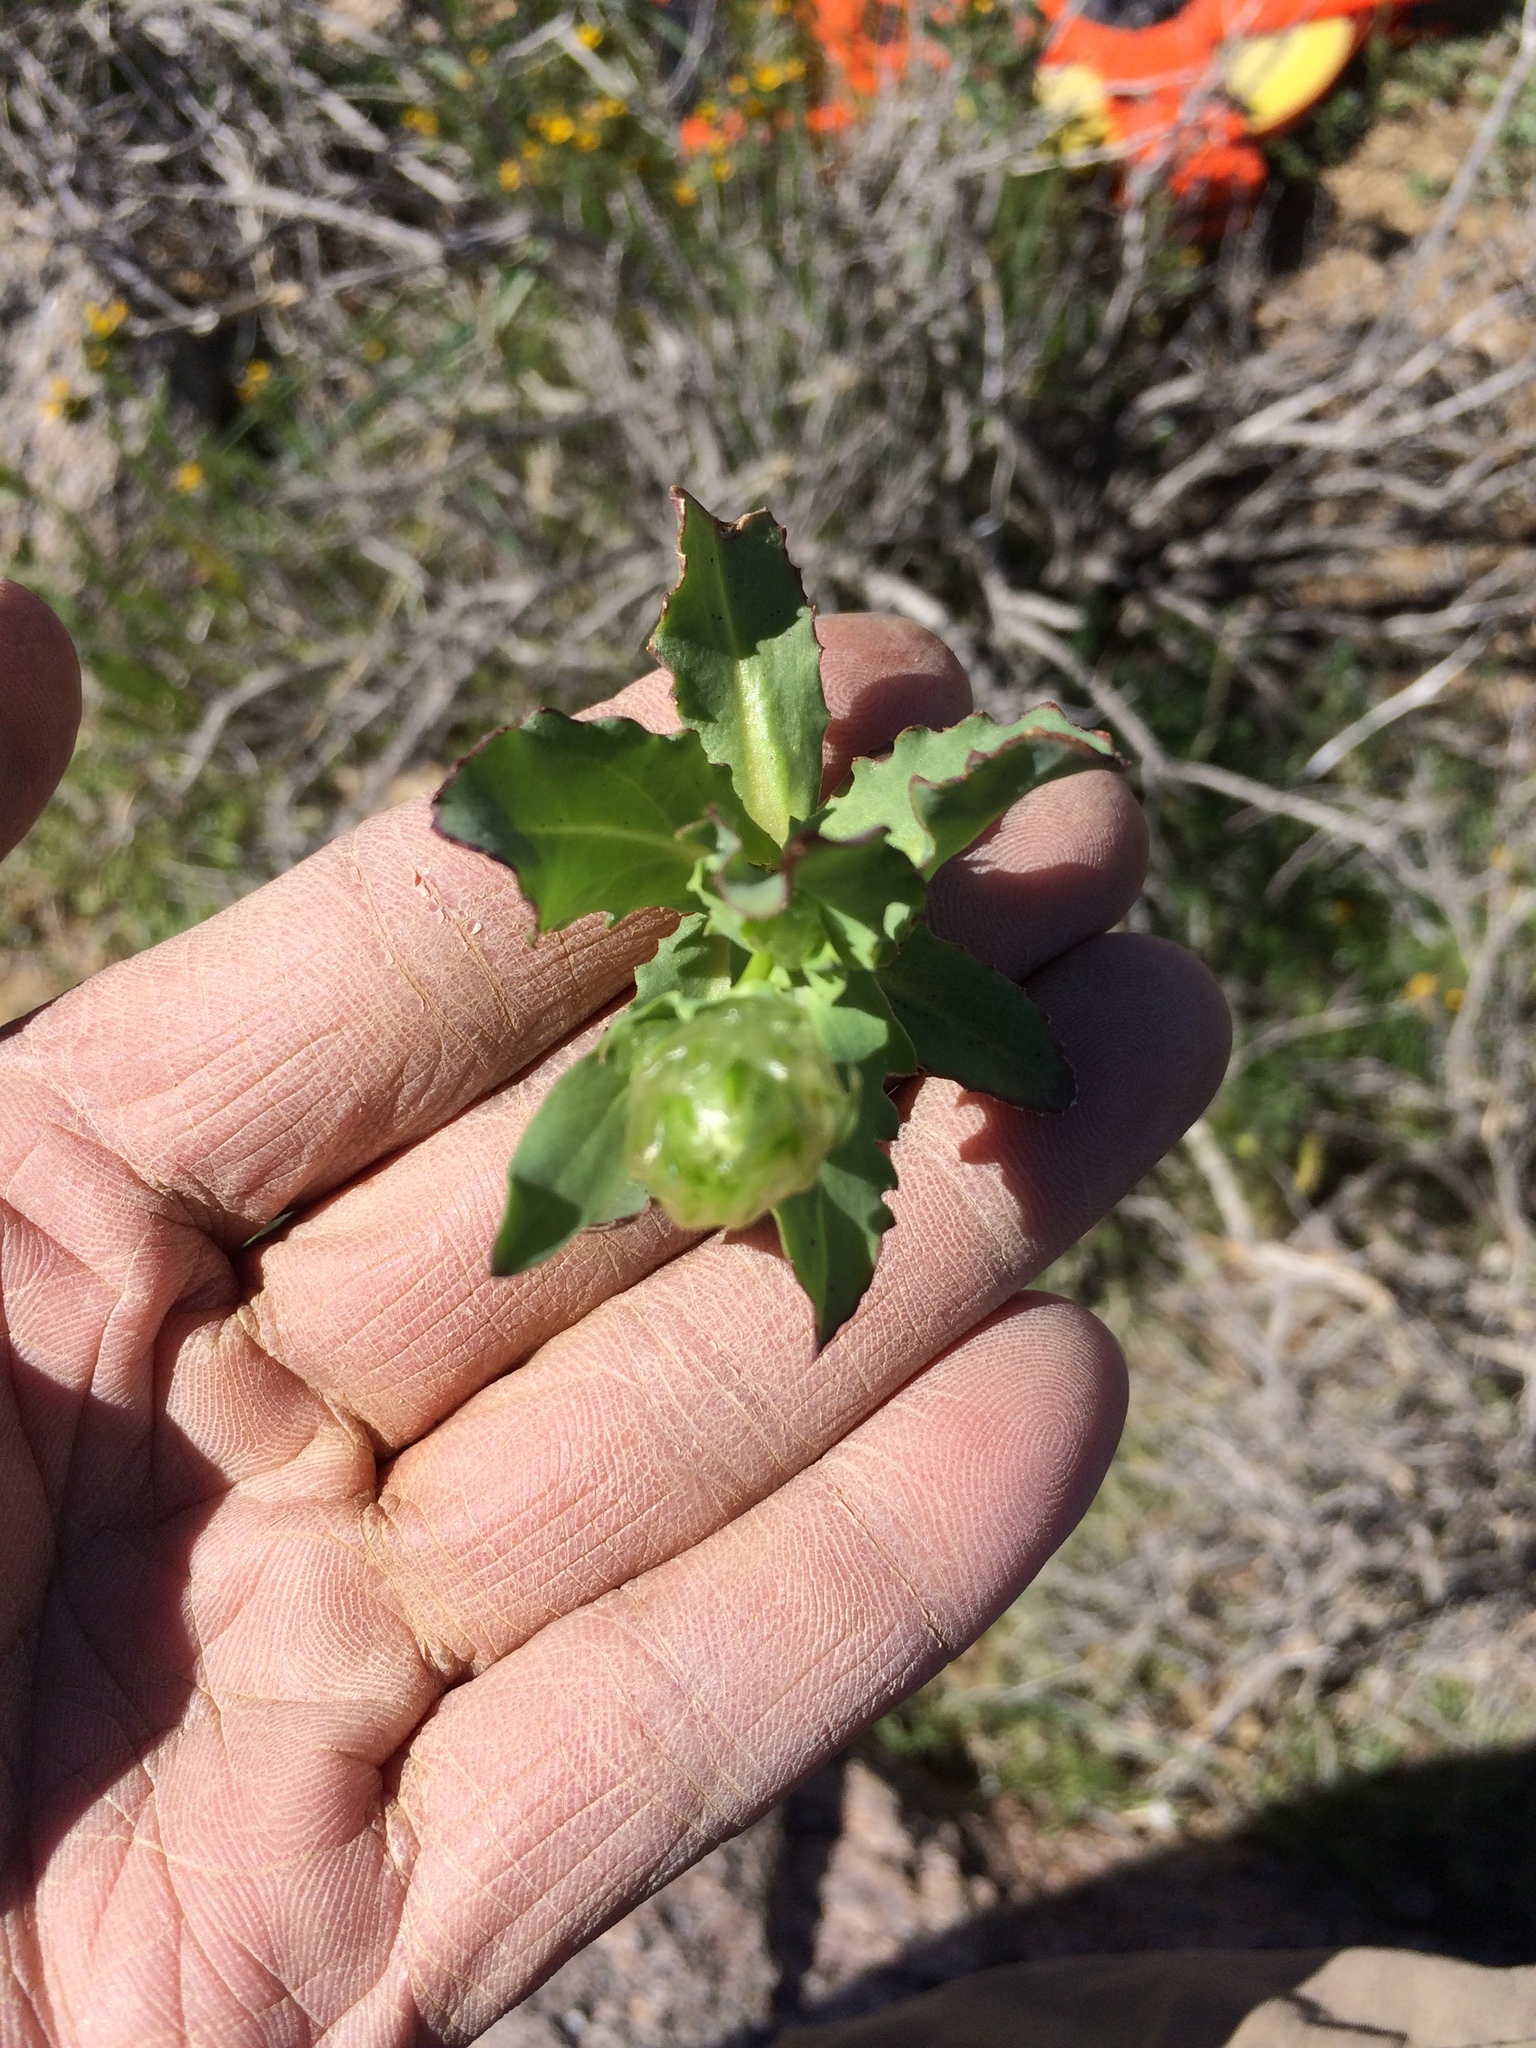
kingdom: Plantae
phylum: Tracheophyta
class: Magnoliopsida
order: Asterales
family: Asteraceae
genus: Malacothrix
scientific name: Malacothrix coulteri
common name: Snake's-head
